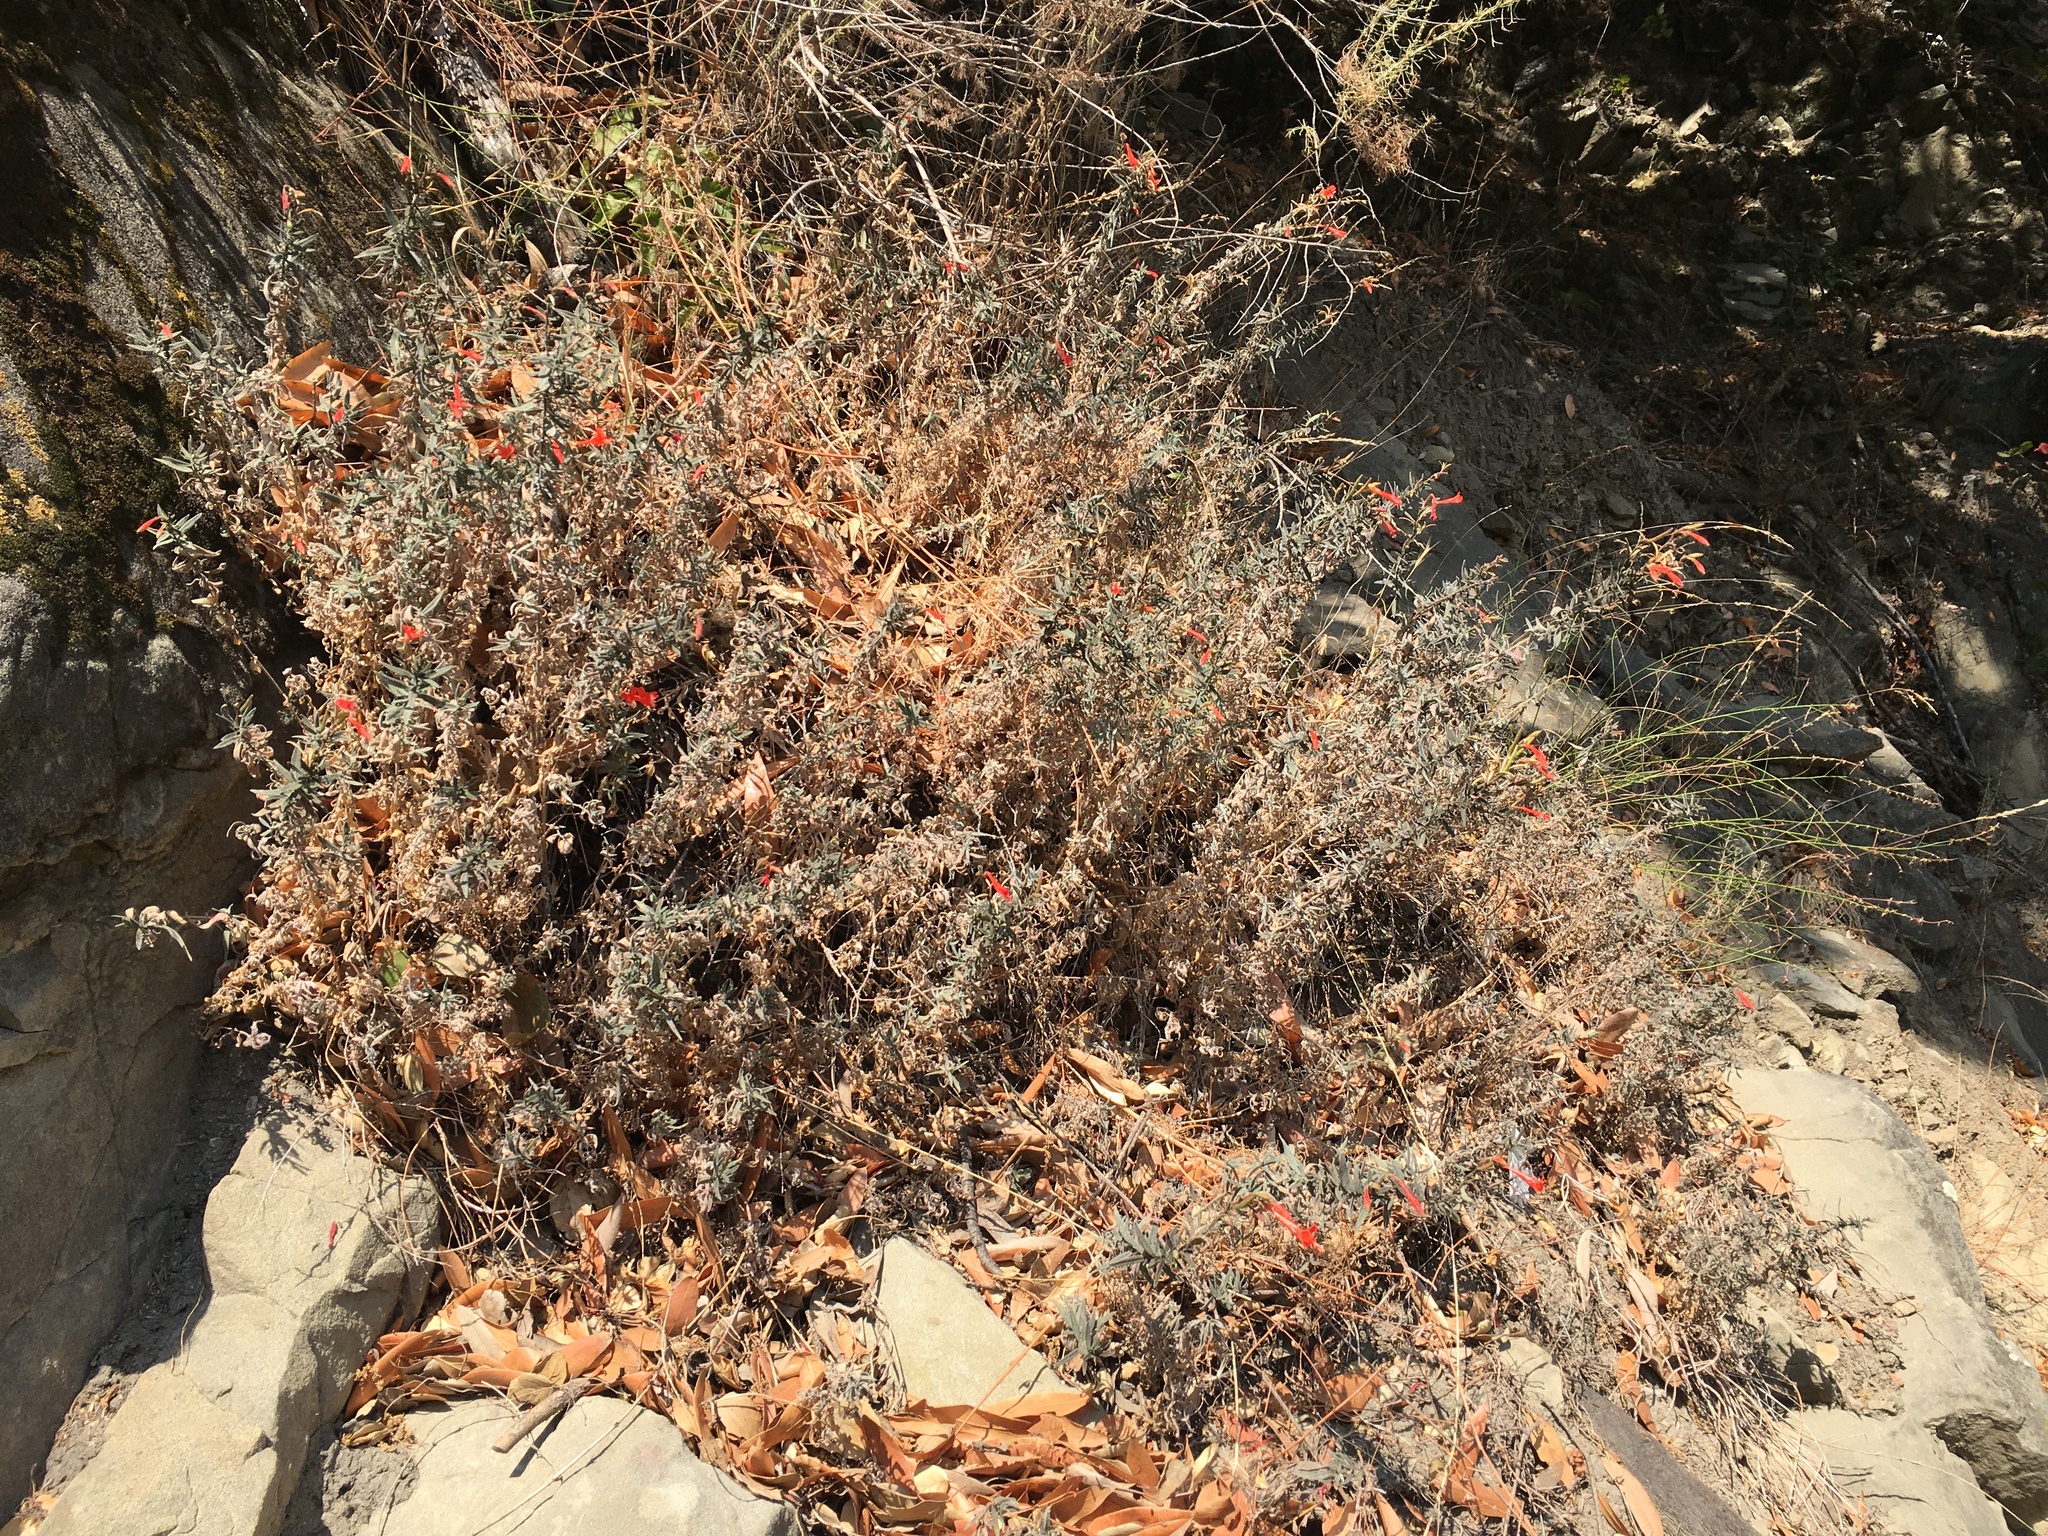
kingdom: Plantae
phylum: Tracheophyta
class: Magnoliopsida
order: Myrtales
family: Onagraceae
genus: Epilobium
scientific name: Epilobium canum
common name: California-fuchsia
